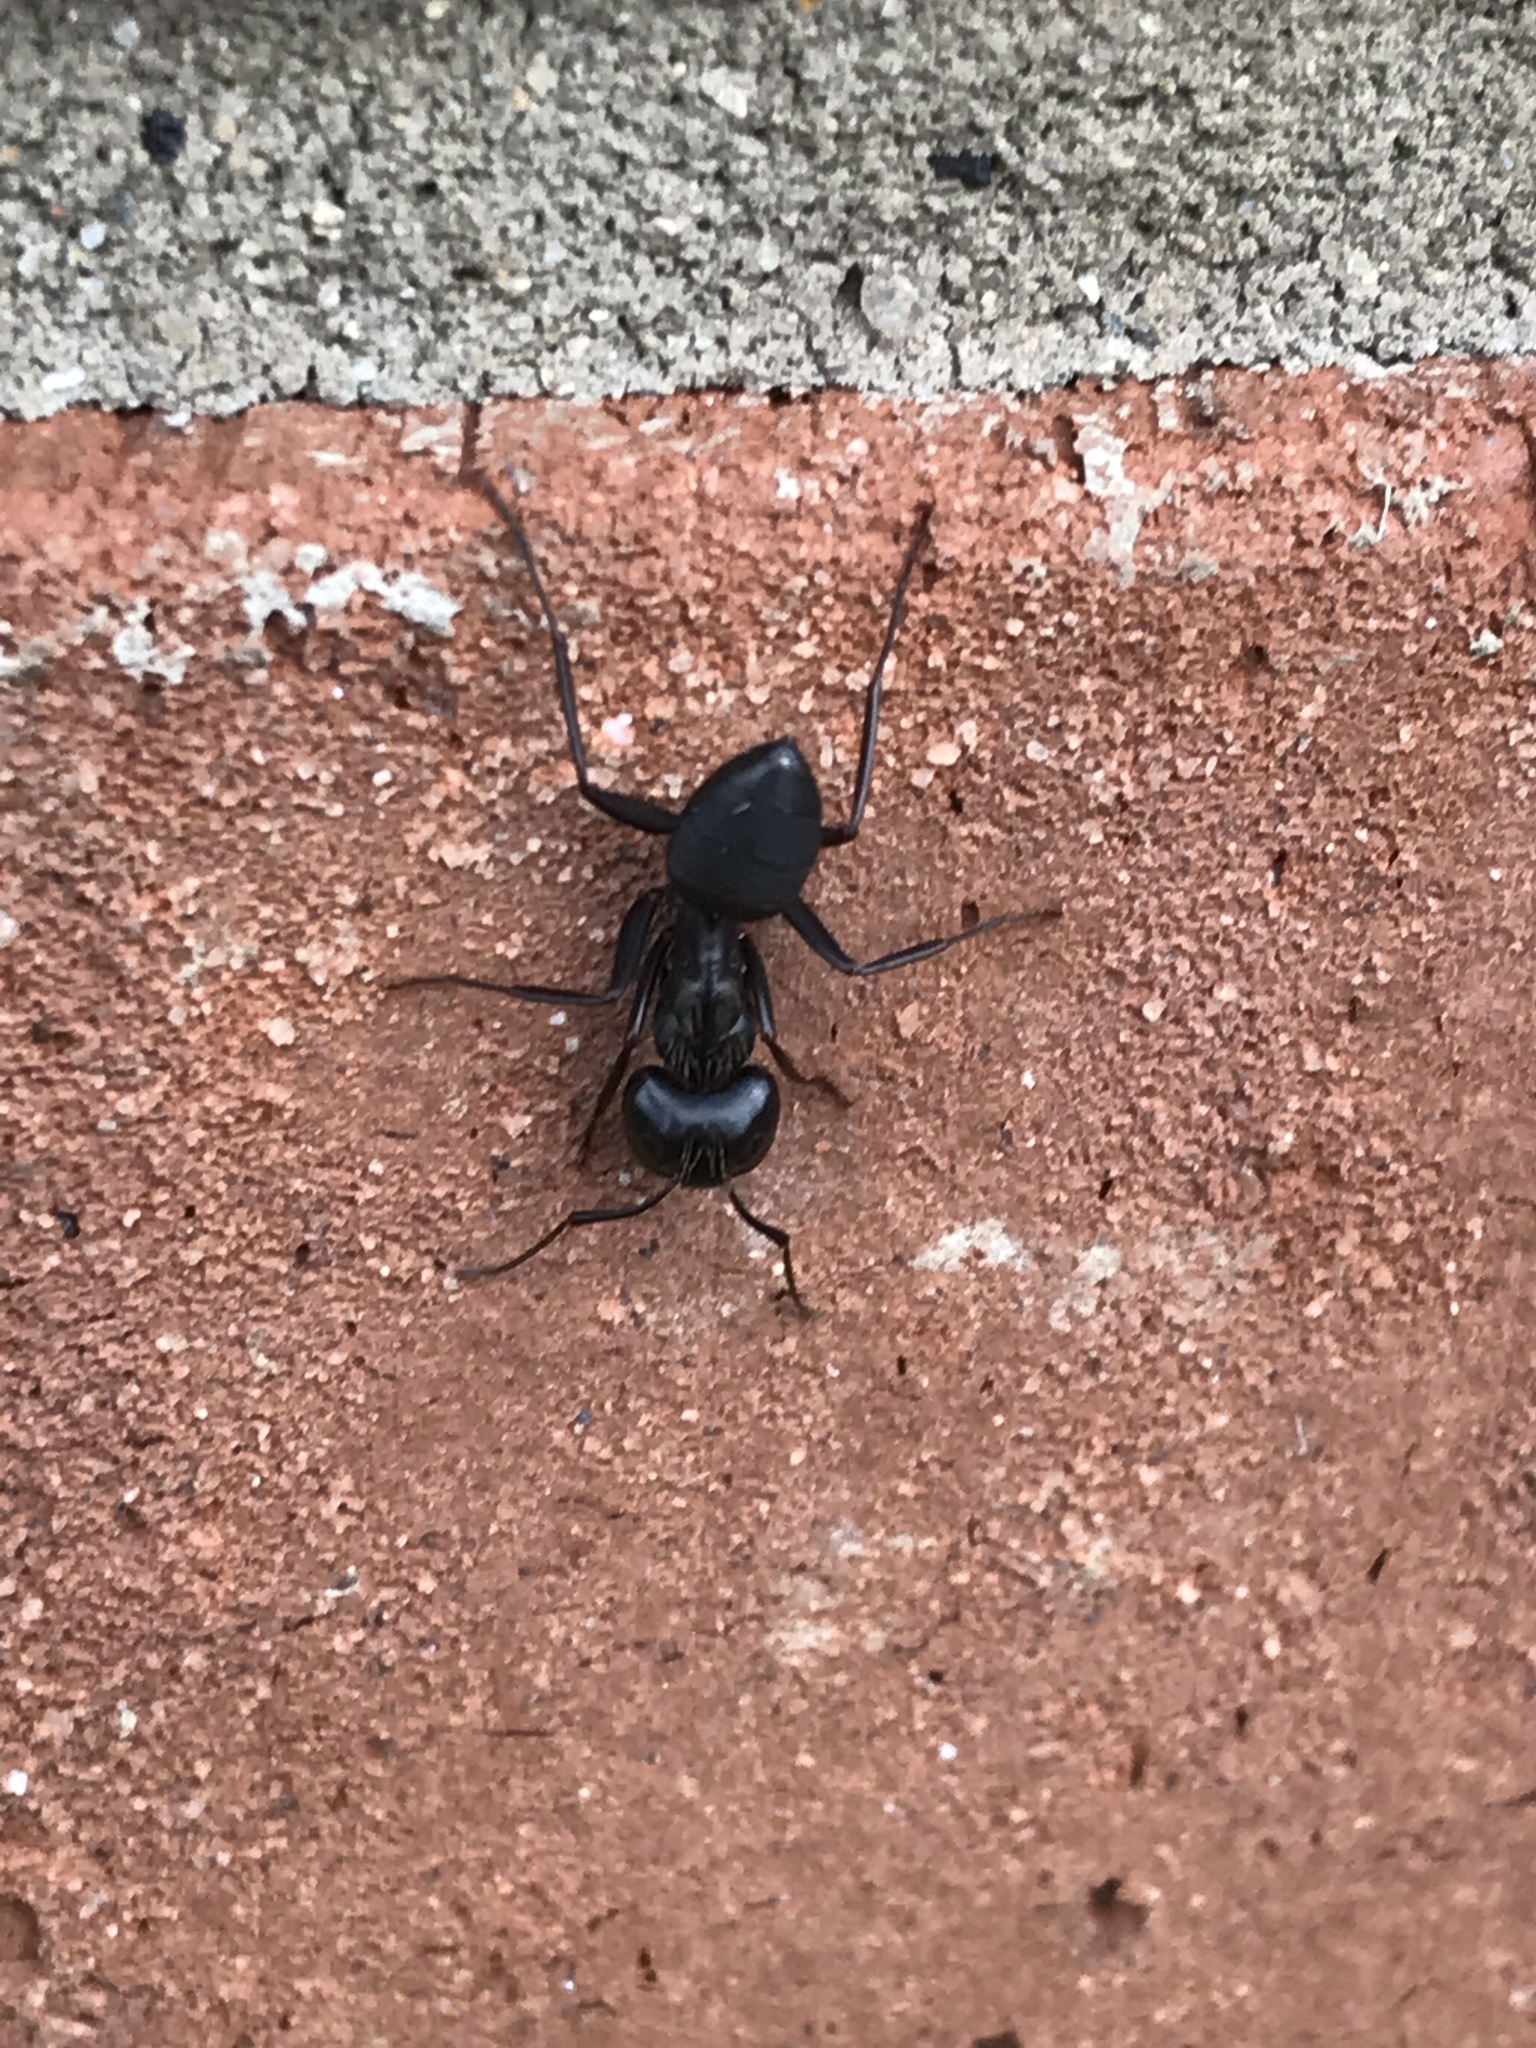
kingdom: Animalia
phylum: Arthropoda
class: Insecta
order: Hymenoptera
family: Formicidae
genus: Camponotus
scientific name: Camponotus pennsylvanicus
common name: Black carpenter ant
